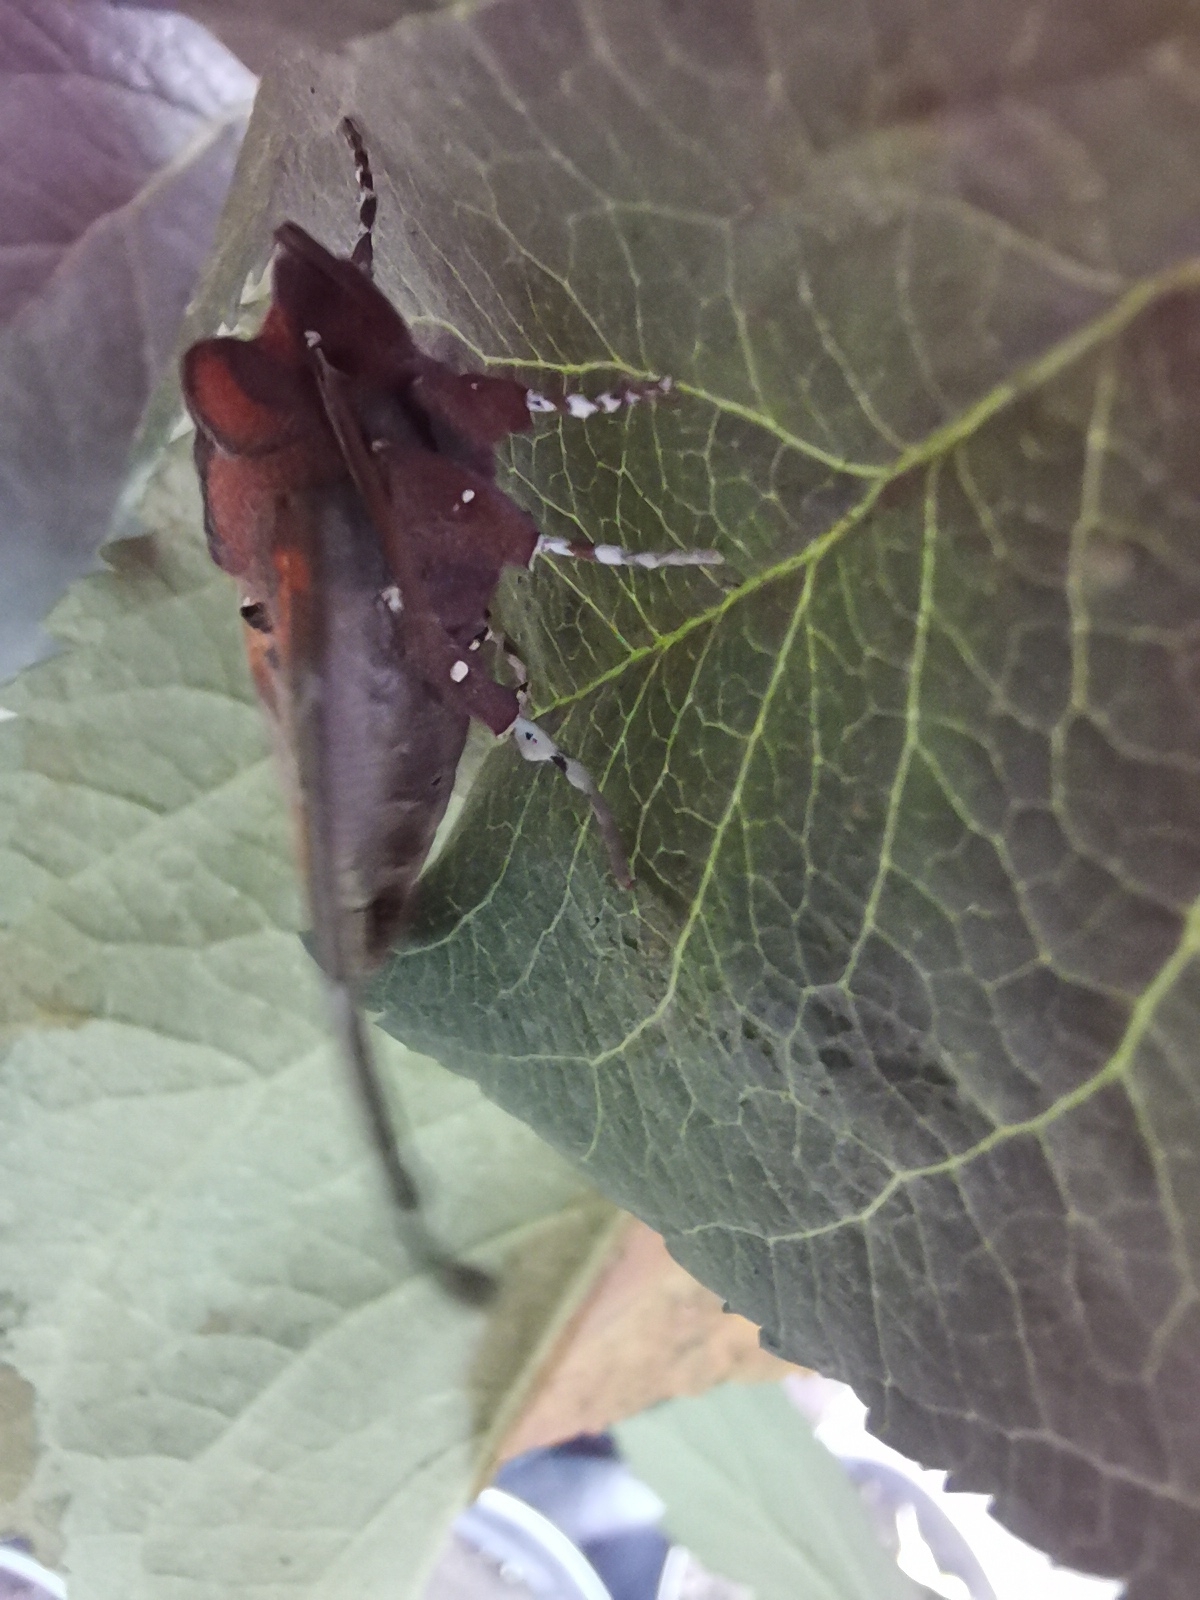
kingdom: Animalia
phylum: Arthropoda
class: Insecta
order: Lepidoptera
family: Erebidae
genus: Scoliopteryx
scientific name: Scoliopteryx libatrix
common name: Herald
